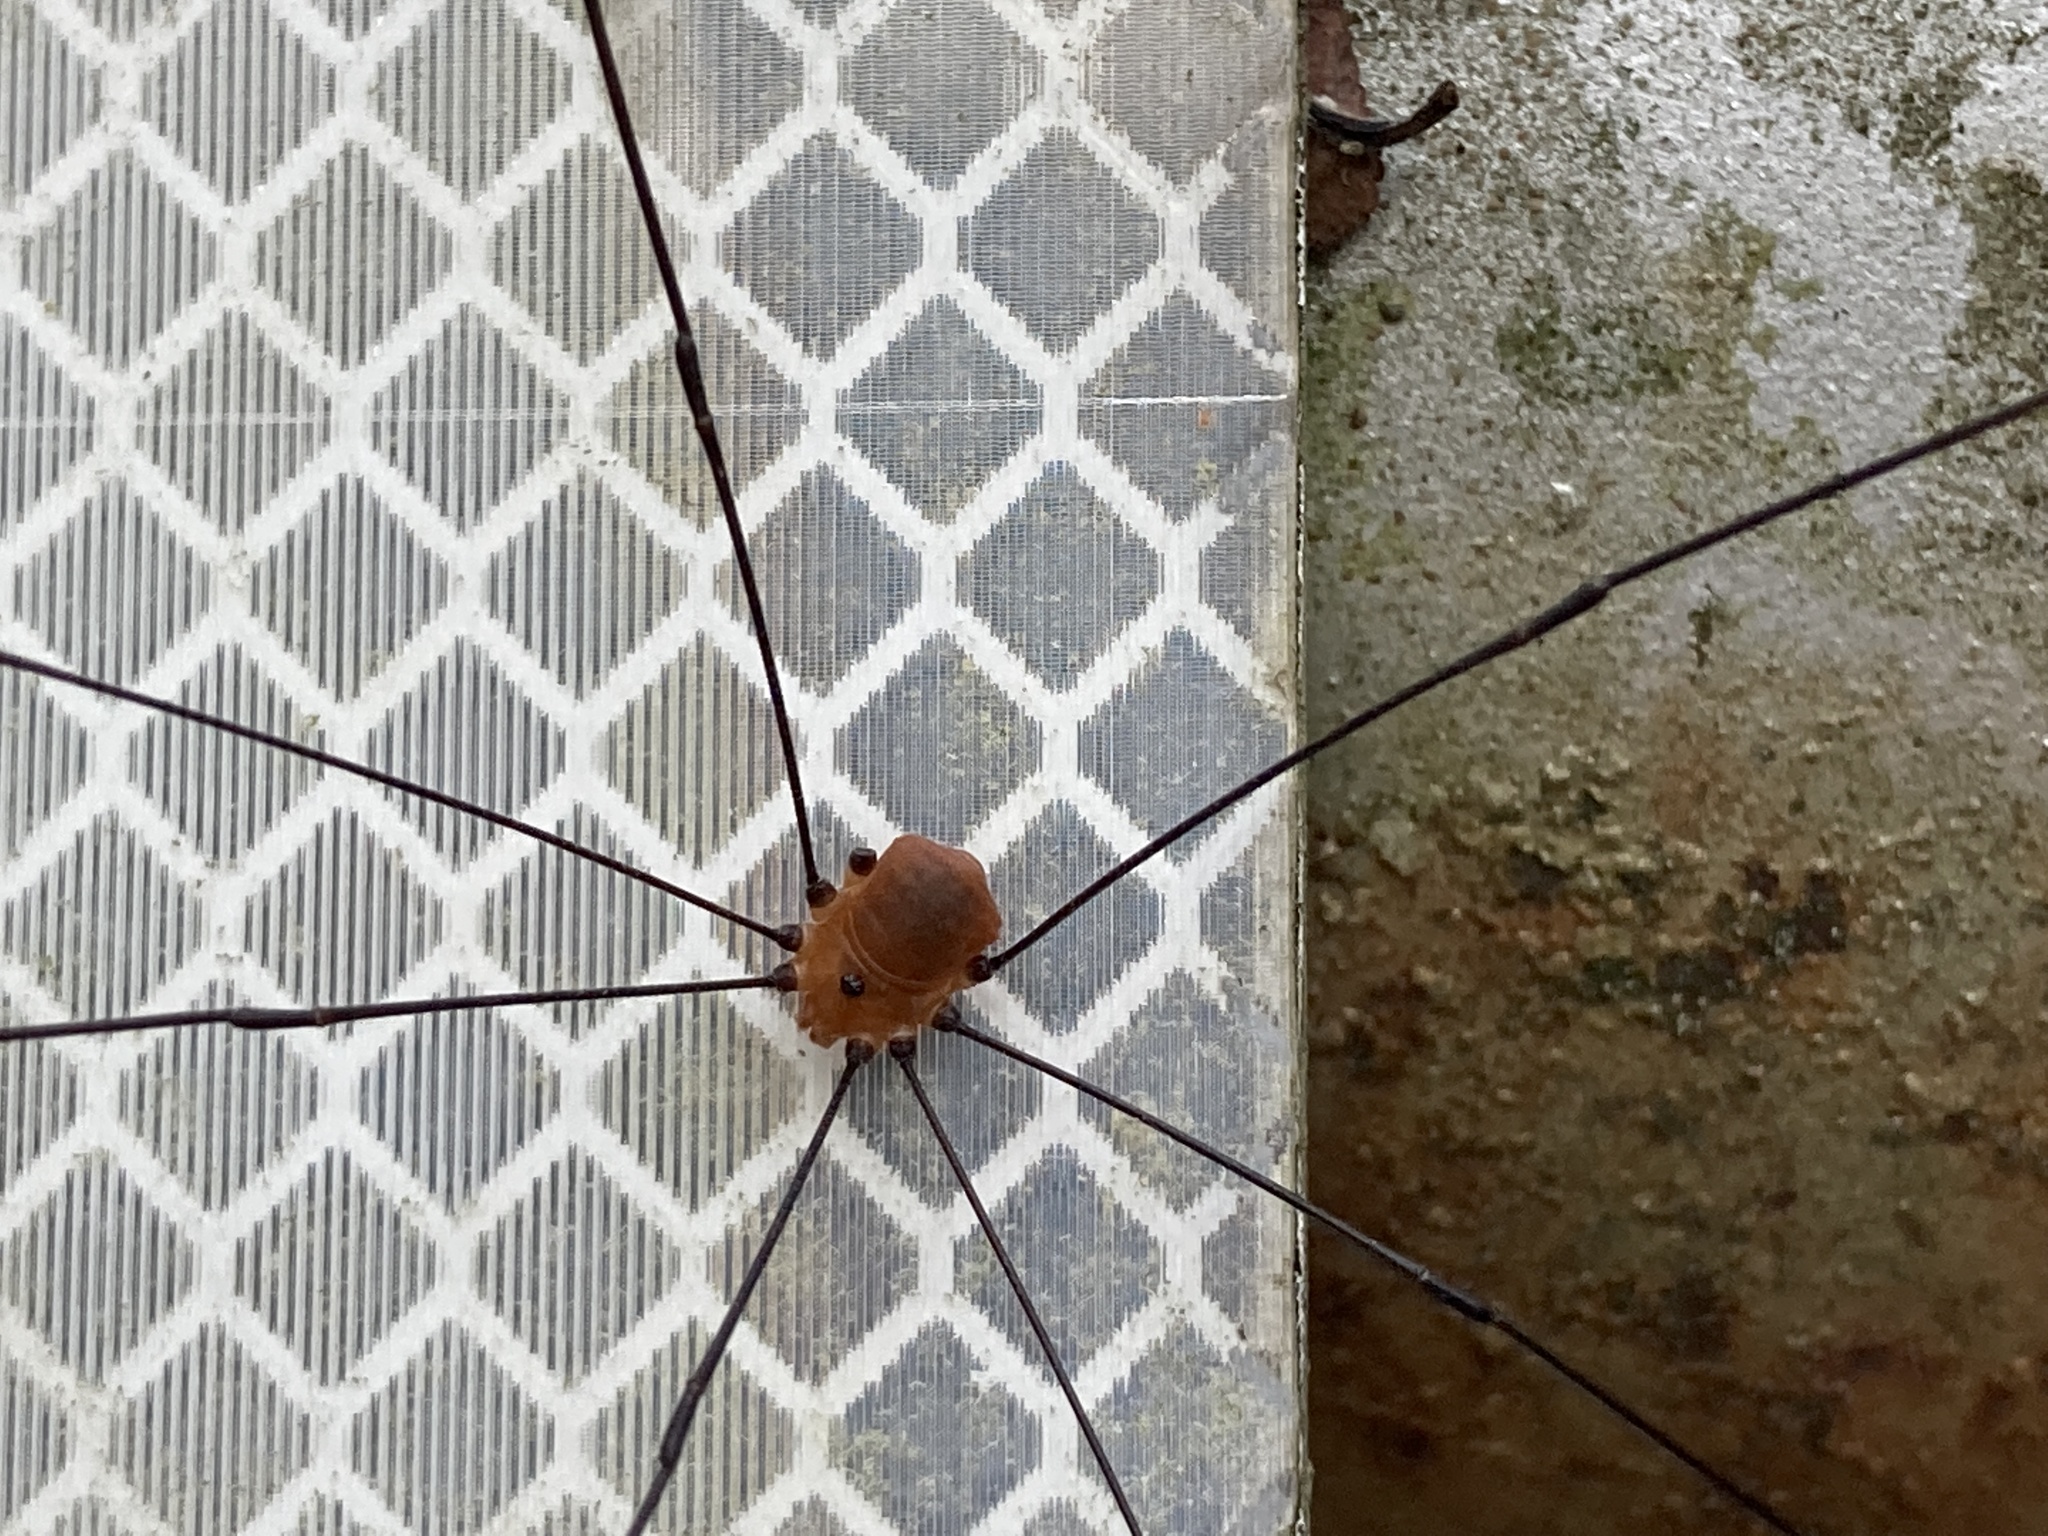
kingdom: Animalia
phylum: Arthropoda
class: Arachnida
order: Opiliones
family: Sclerosomatidae
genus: Leiobunum
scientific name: Leiobunum uxorium
